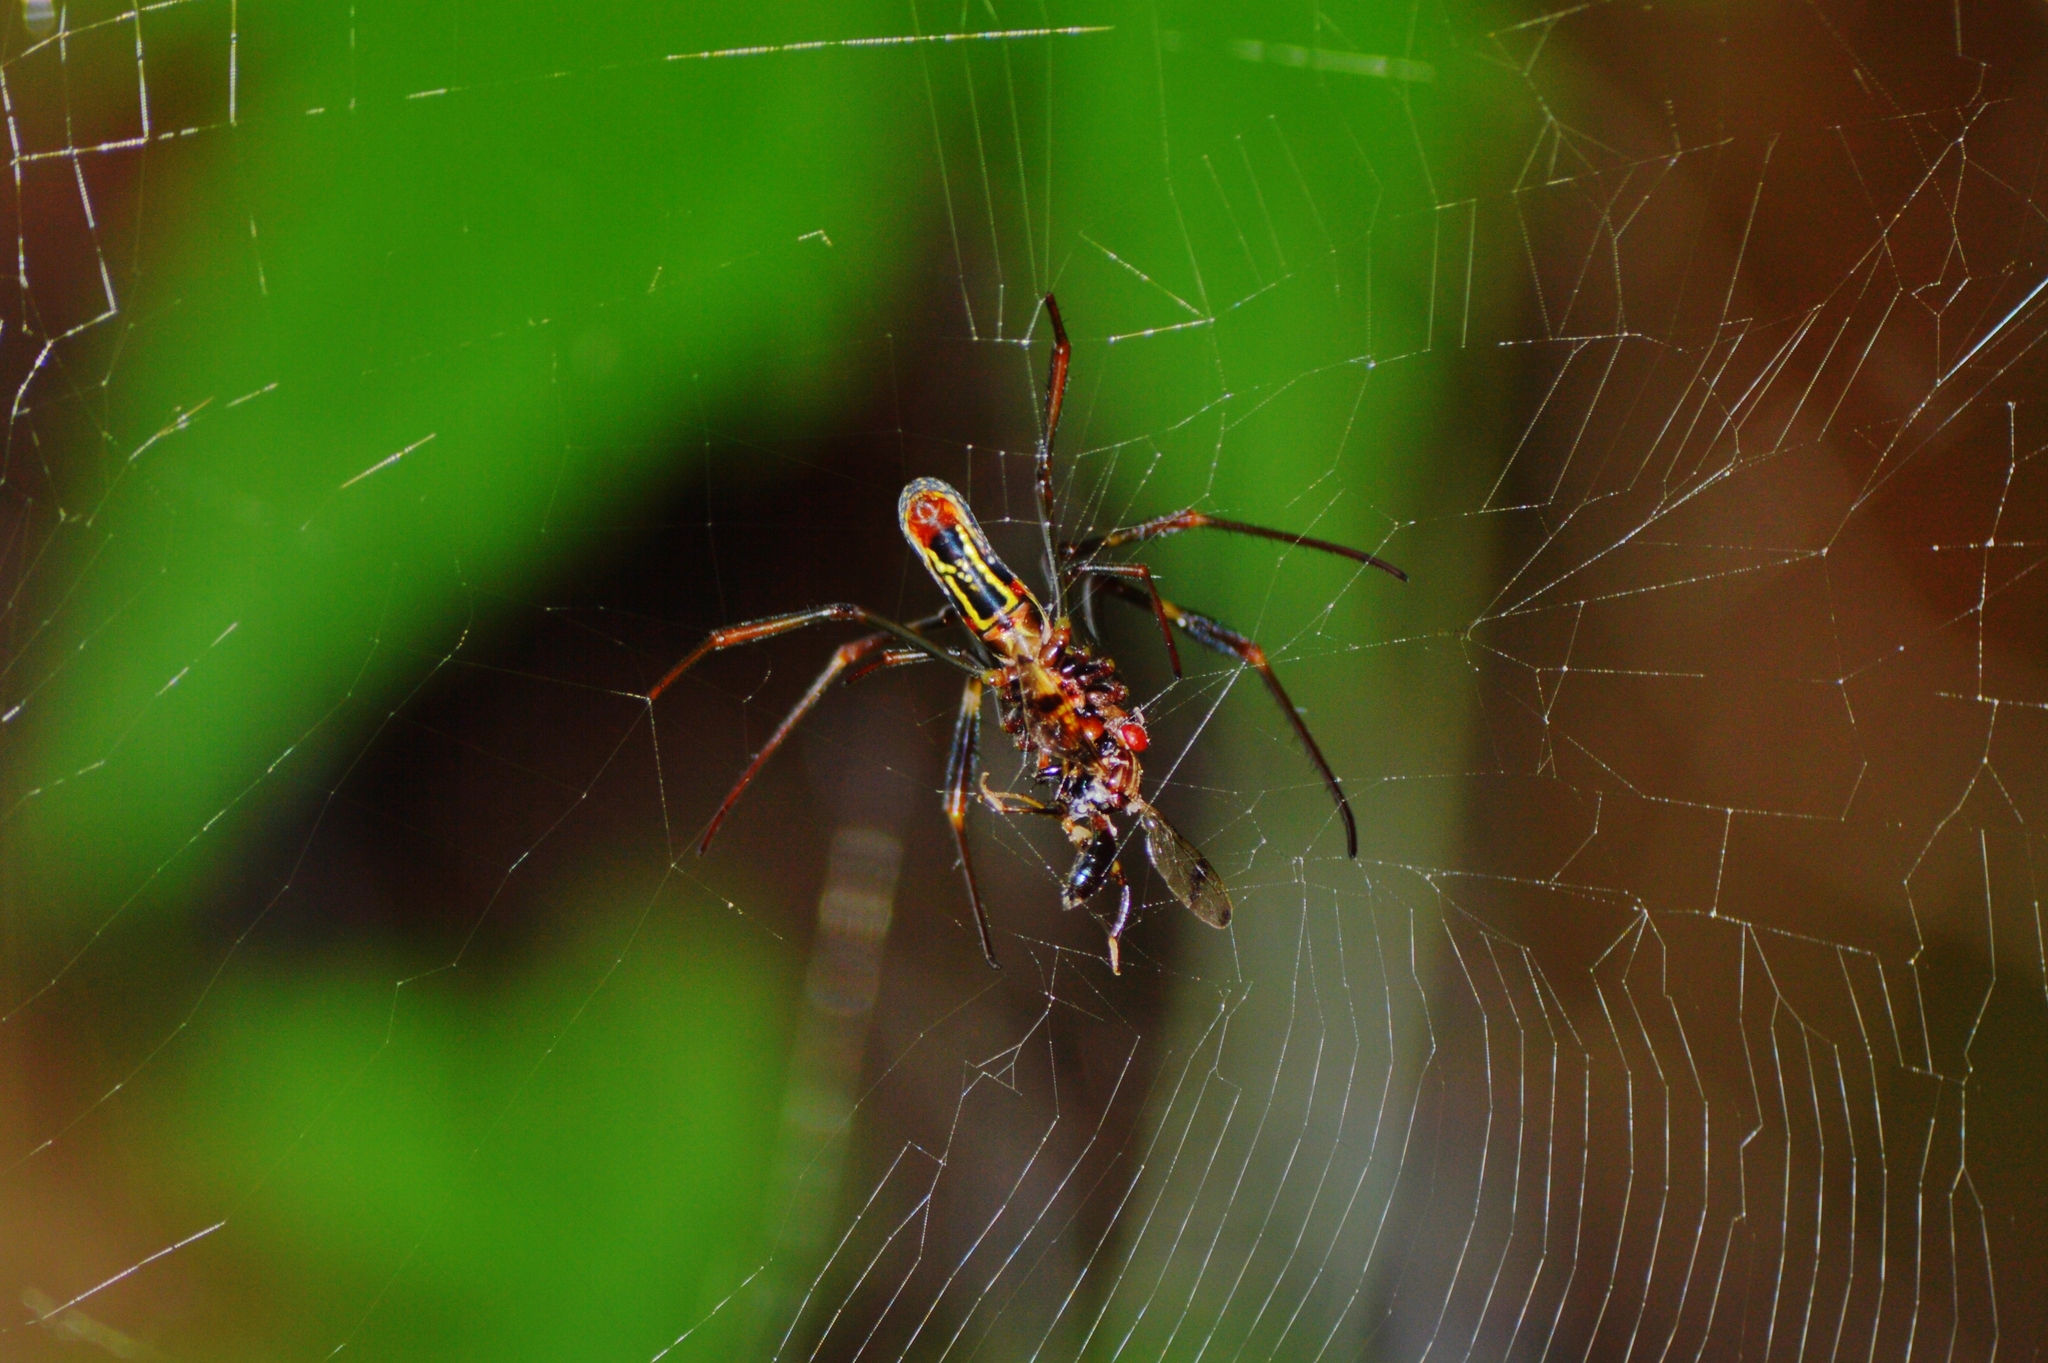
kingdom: Animalia
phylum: Arthropoda
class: Arachnida
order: Araneae
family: Araneidae
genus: Trichonephila
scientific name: Trichonephila clavipes
